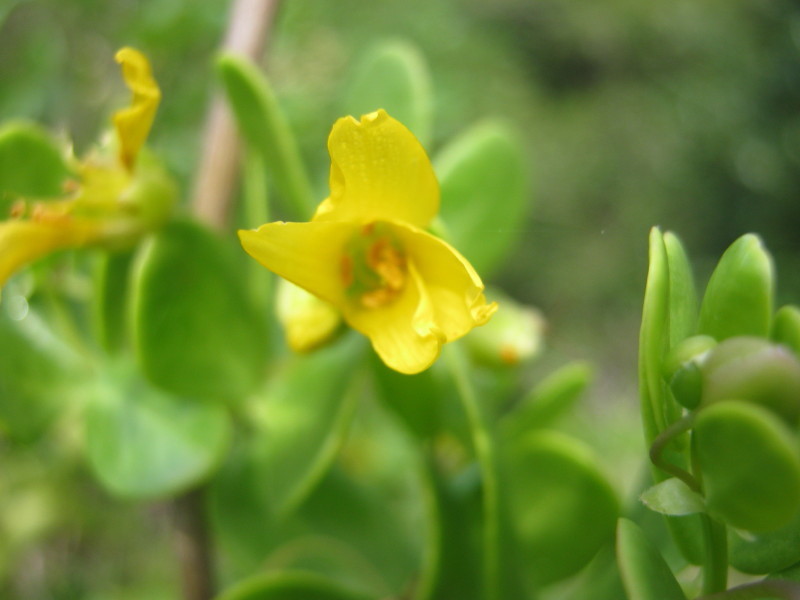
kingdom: Plantae
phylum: Tracheophyta
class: Magnoliopsida
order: Zygophyllales
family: Zygophyllaceae
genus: Roepera
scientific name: Roepera morgsana
